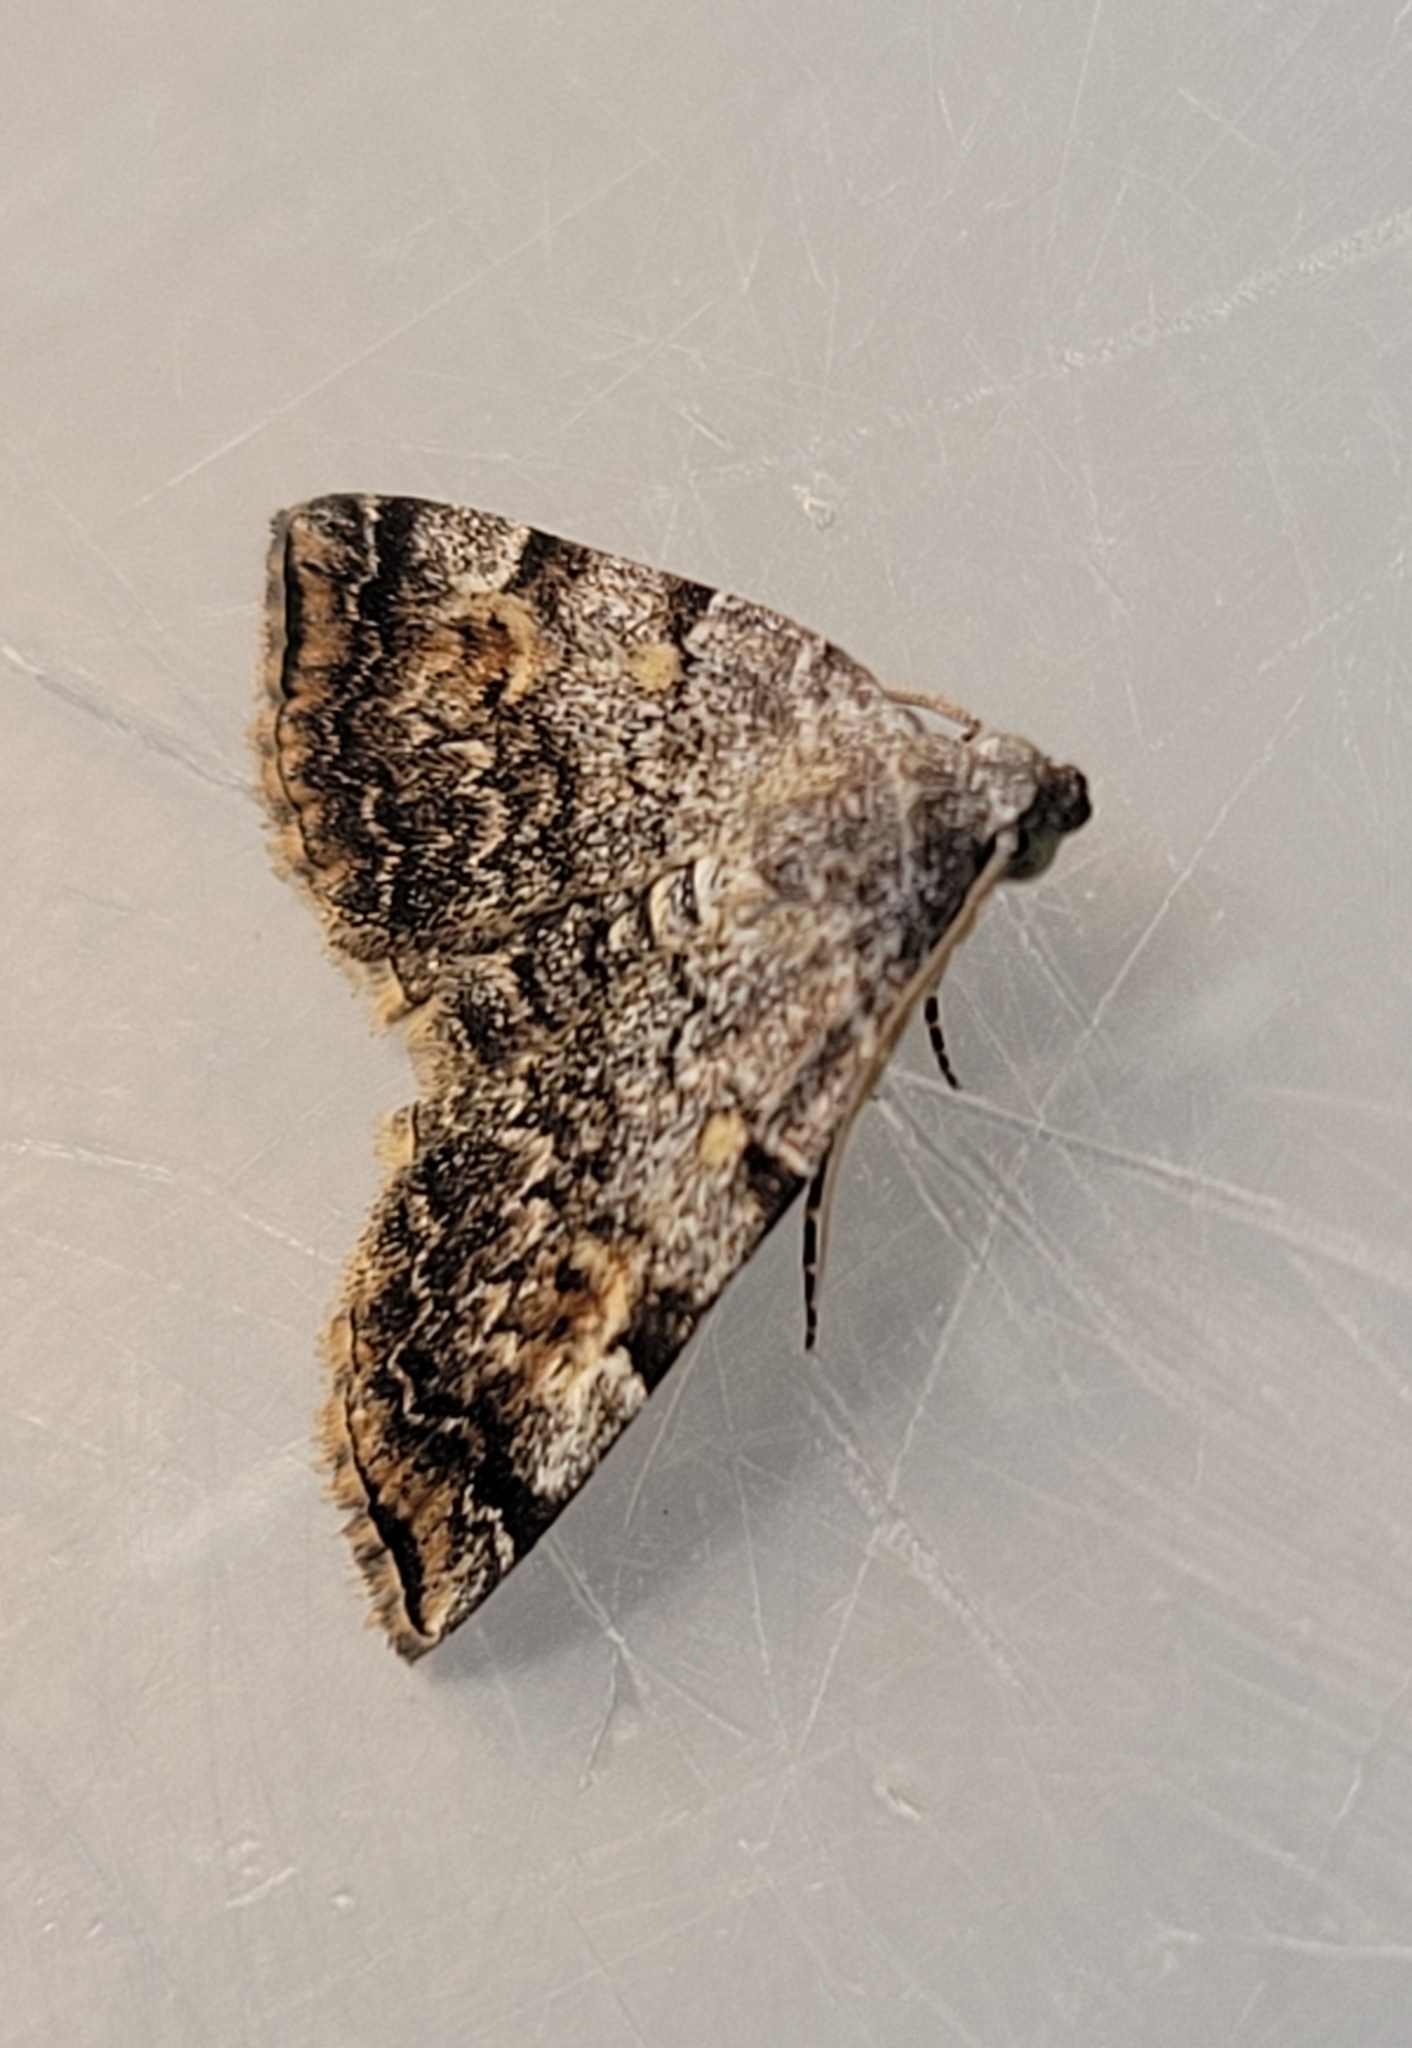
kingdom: Animalia
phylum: Arthropoda
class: Insecta
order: Lepidoptera
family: Erebidae
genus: Idia
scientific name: Idia americalis
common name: American idia moth
